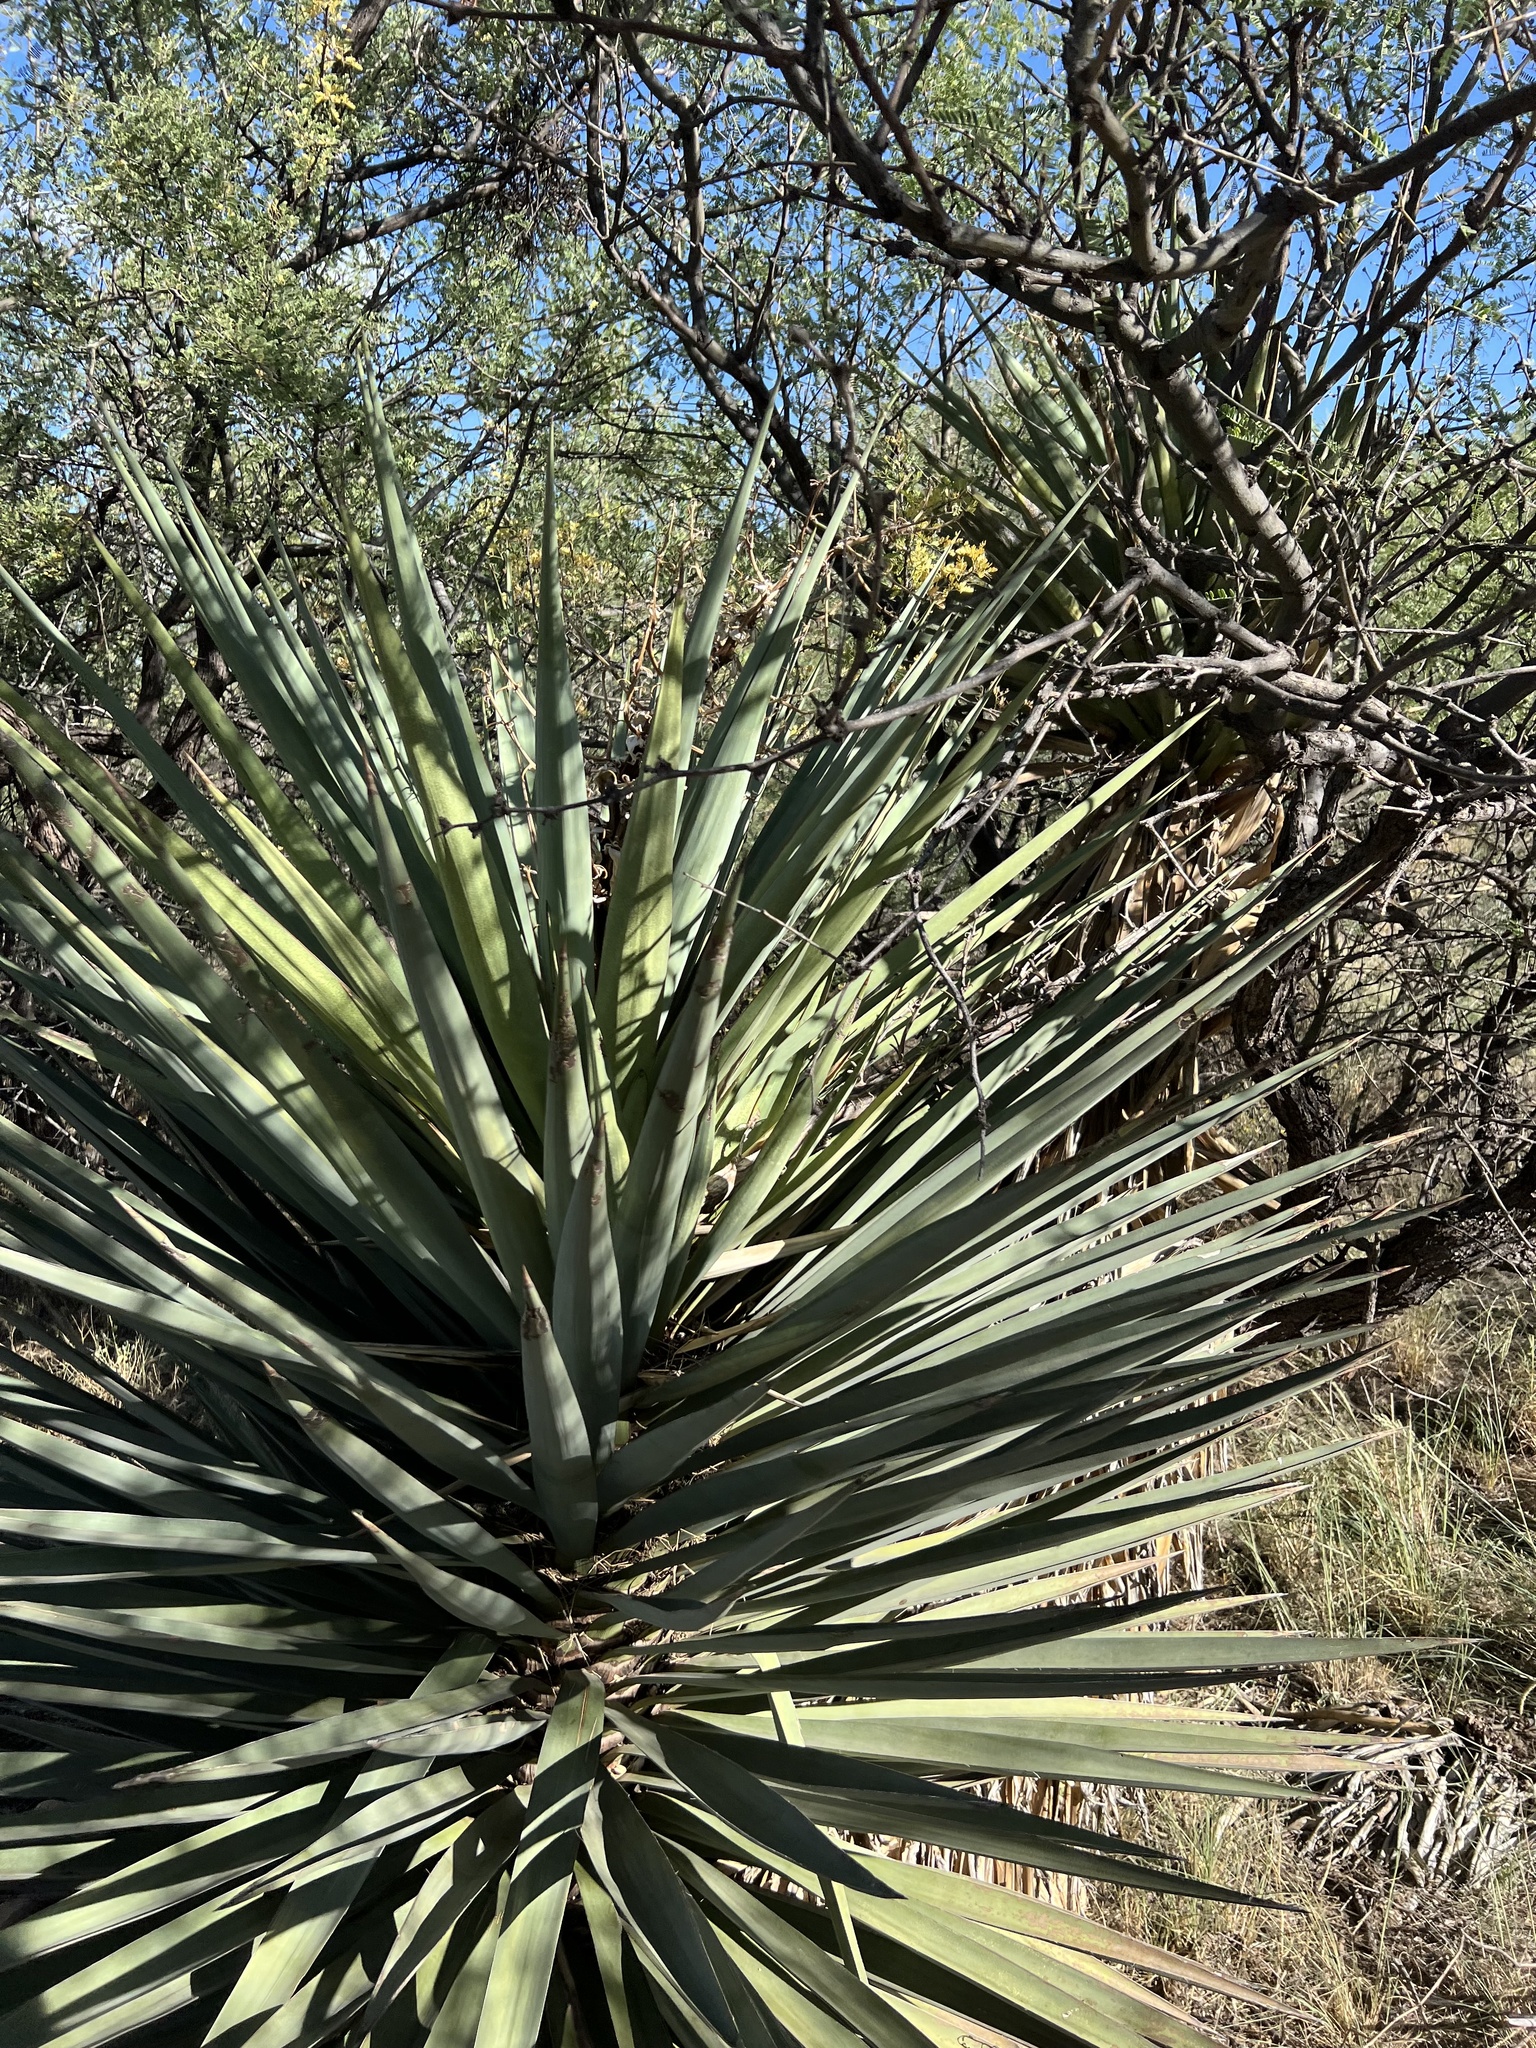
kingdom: Plantae
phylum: Tracheophyta
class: Liliopsida
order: Asparagales
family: Asparagaceae
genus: Yucca
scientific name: Yucca schottii
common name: Hoary yucca
